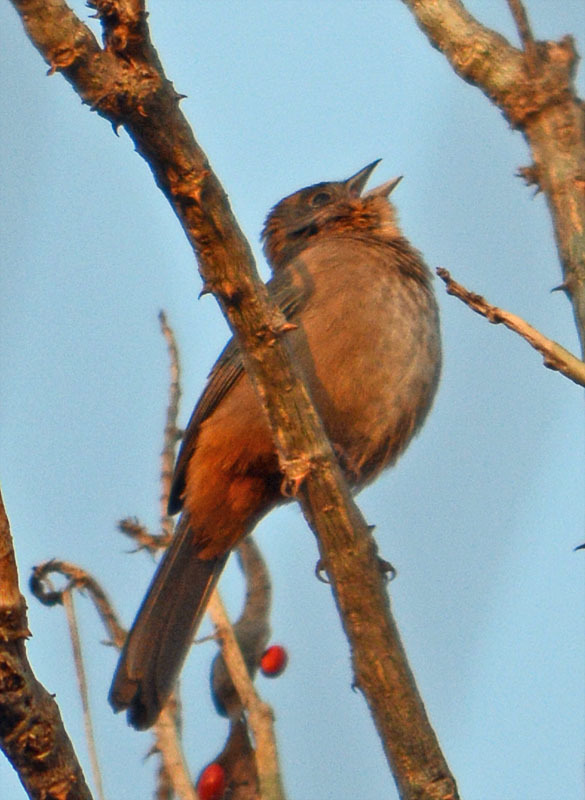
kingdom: Animalia
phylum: Chordata
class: Aves
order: Passeriformes
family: Passerellidae
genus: Melozone
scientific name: Melozone fusca
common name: Canyon towhee
